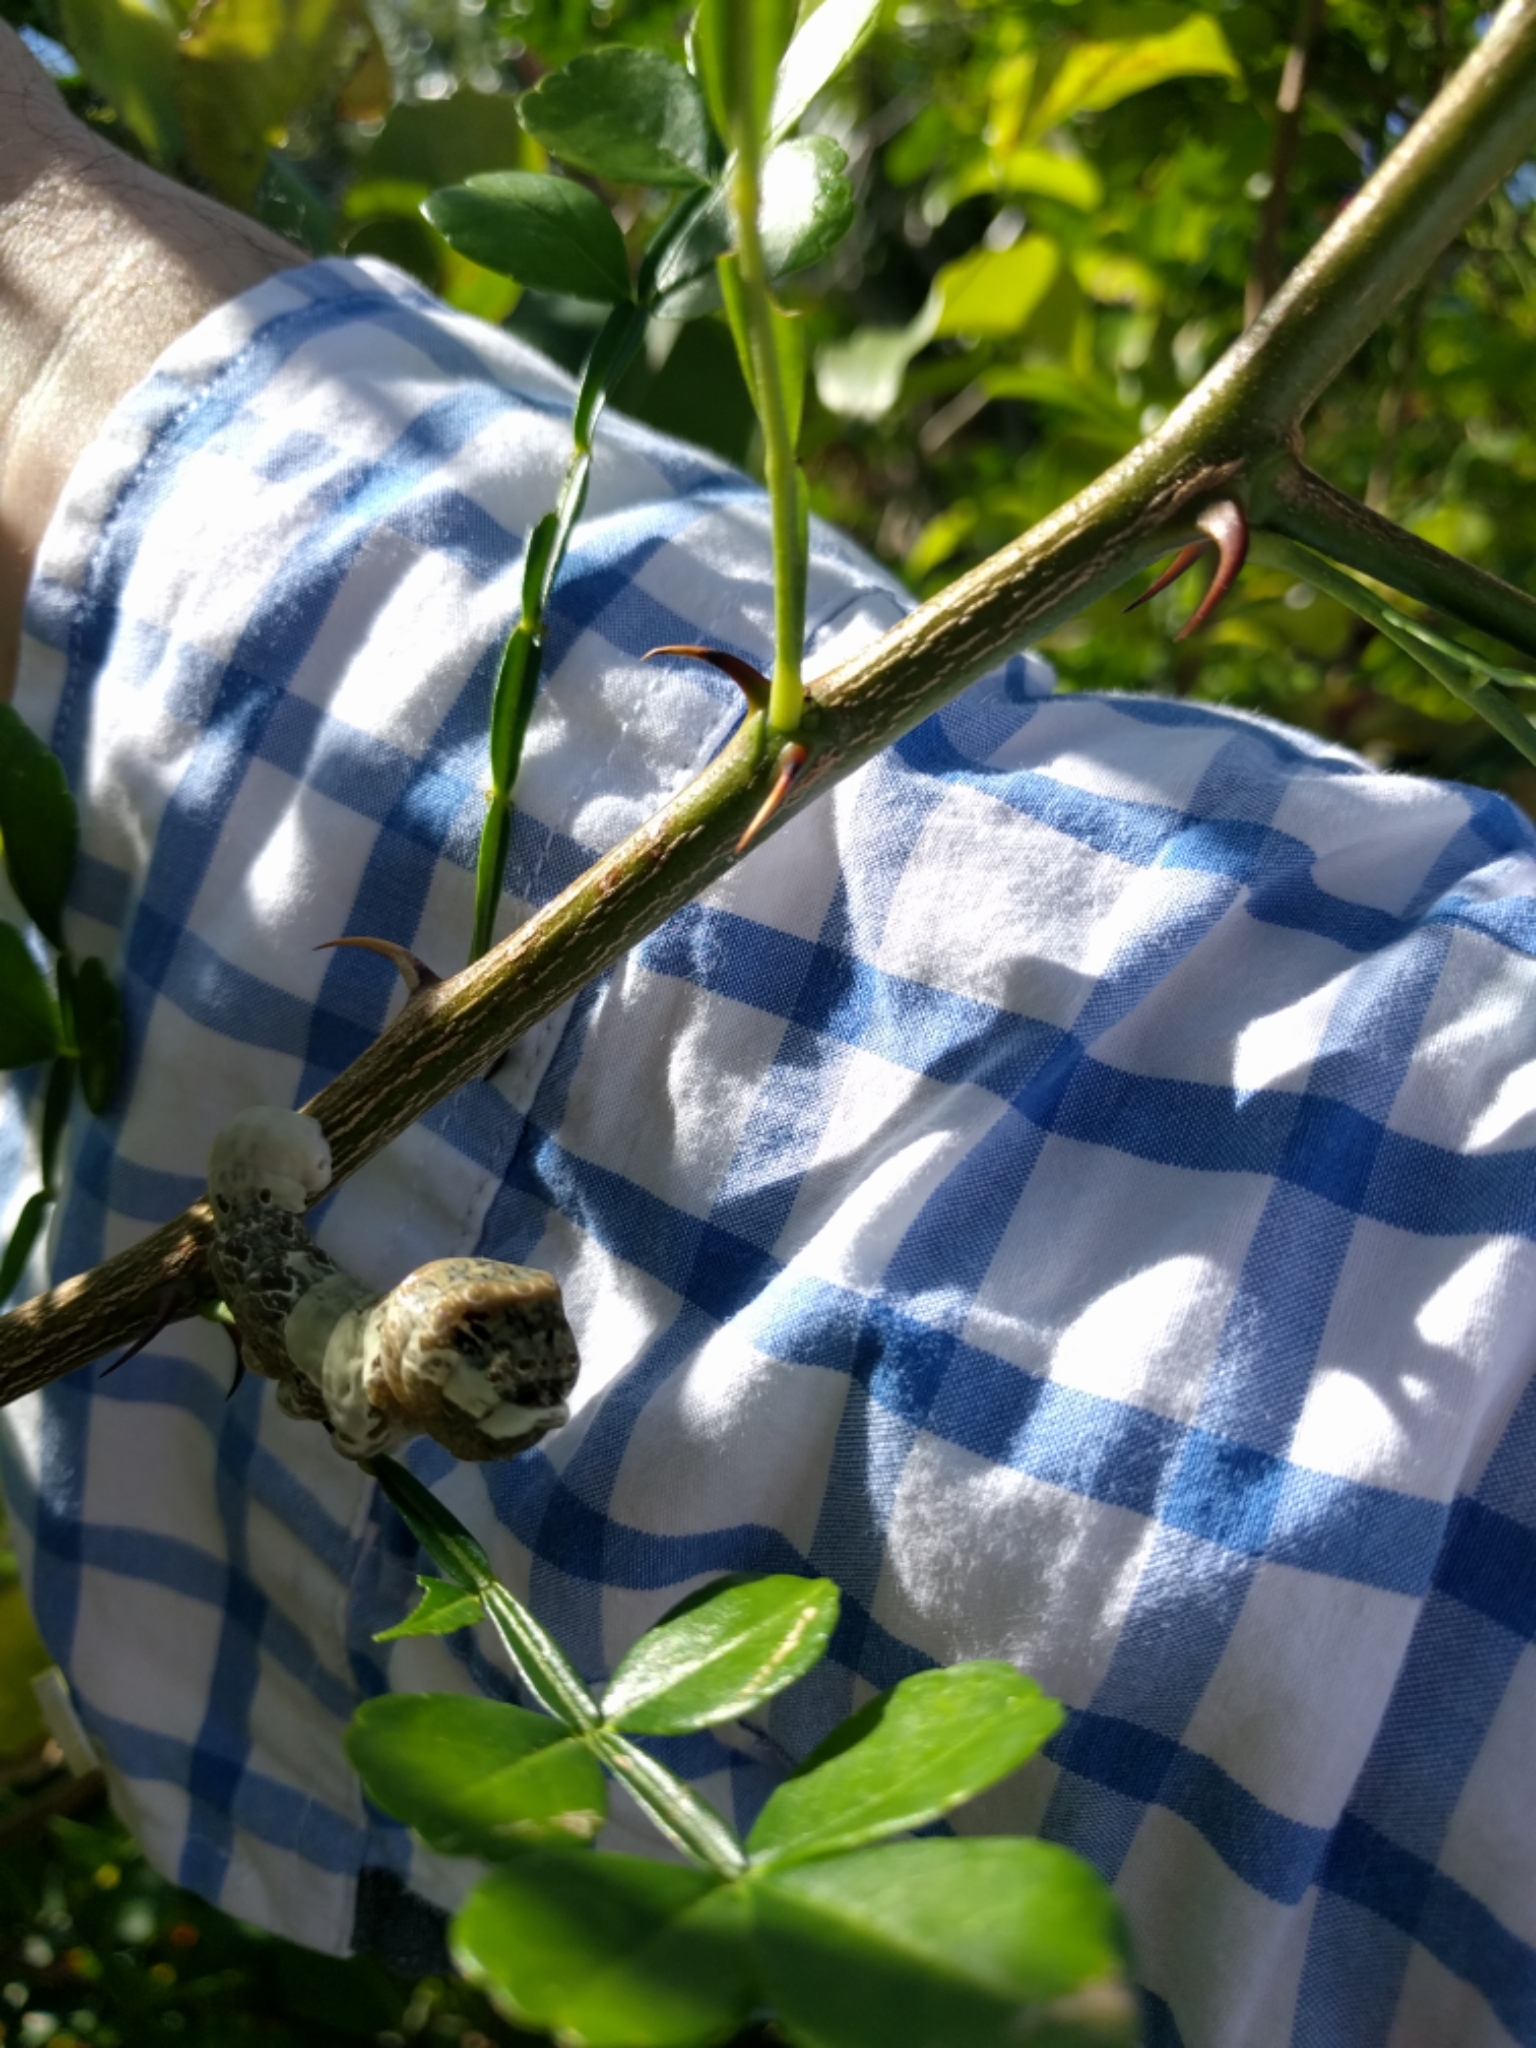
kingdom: Animalia
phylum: Arthropoda
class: Insecta
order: Lepidoptera
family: Papilionidae
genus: Papilio
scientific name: Papilio cresphontes
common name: Giant swallowtail
